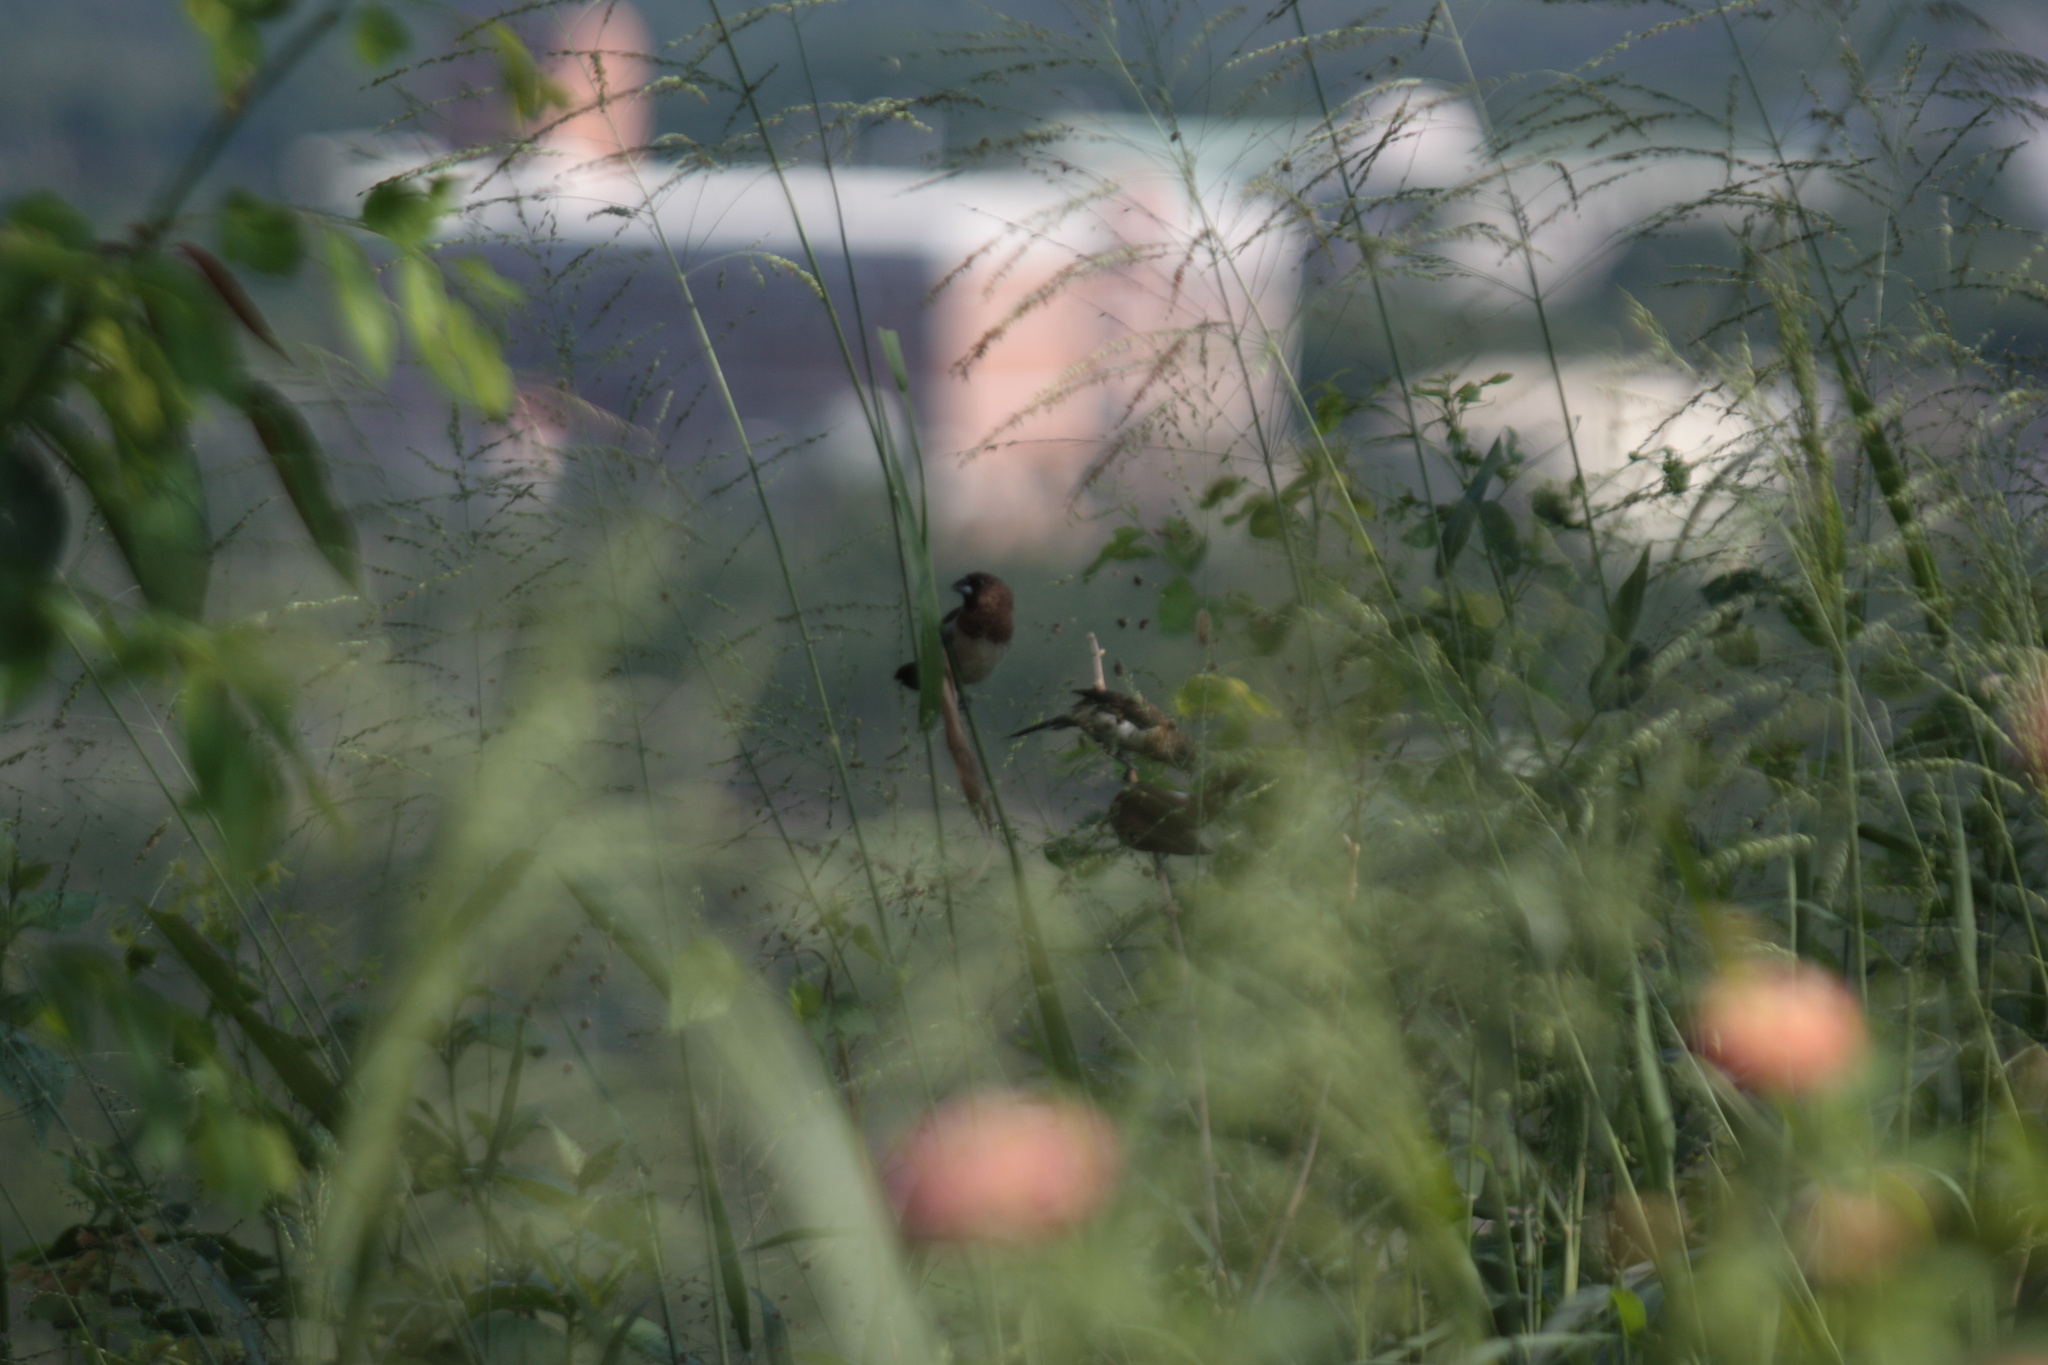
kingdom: Animalia
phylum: Chordata
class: Aves
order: Passeriformes
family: Estrildidae
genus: Lonchura
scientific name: Lonchura striata
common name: White-rumped munia
